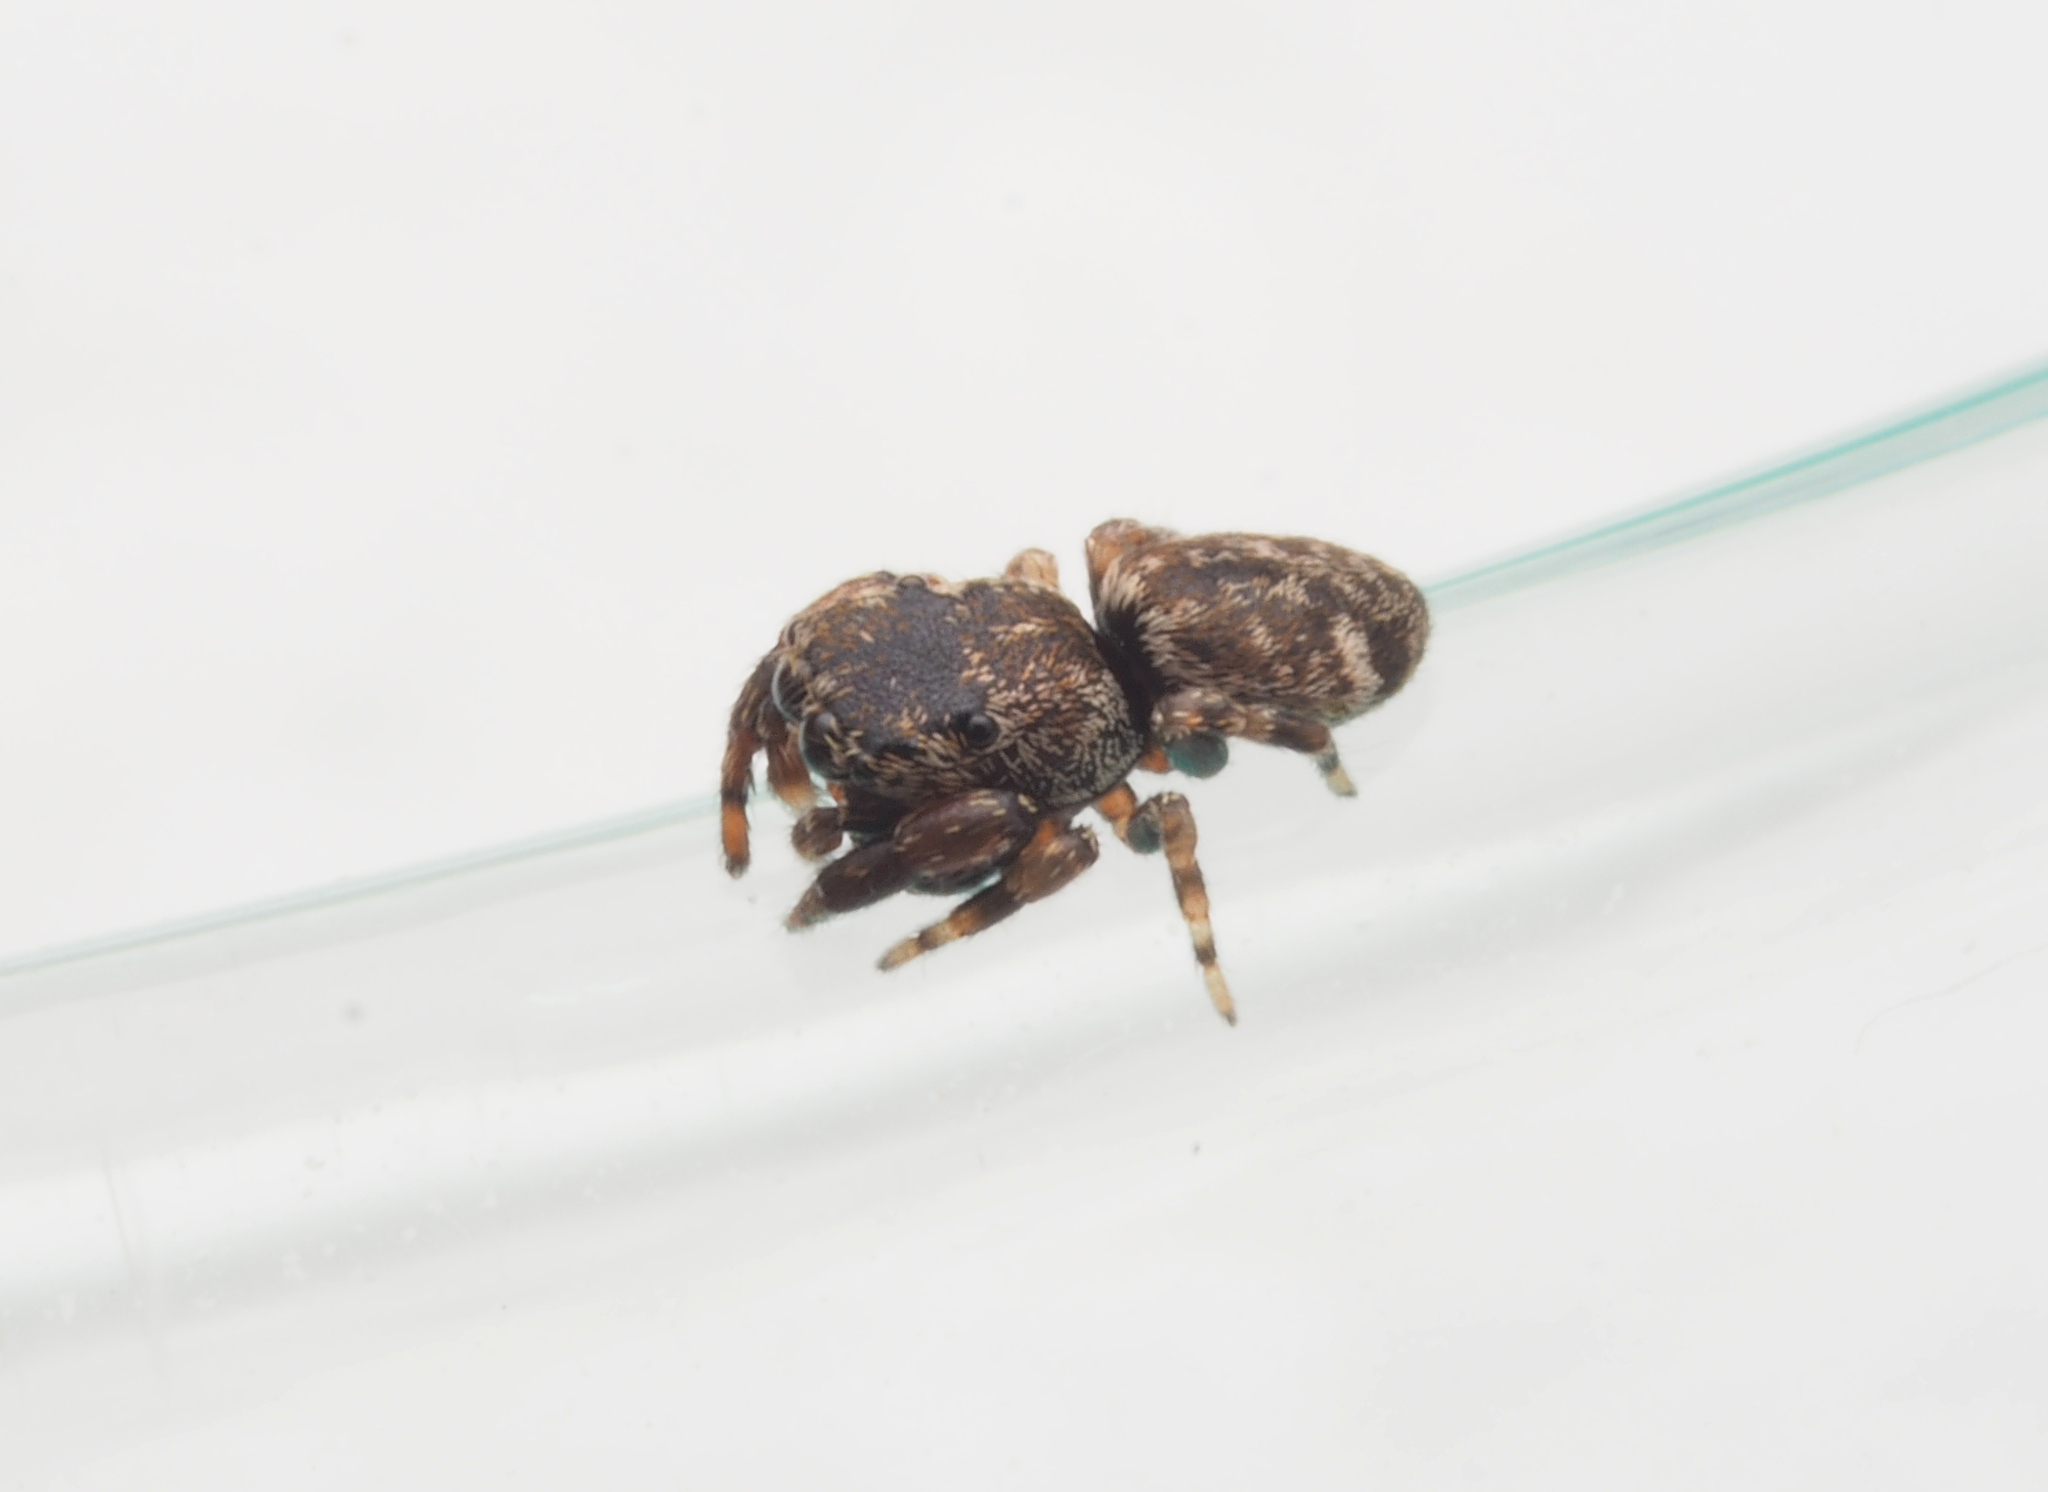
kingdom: Animalia
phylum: Arthropoda
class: Arachnida
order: Araneae
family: Salticidae
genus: Tara
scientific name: Tara
